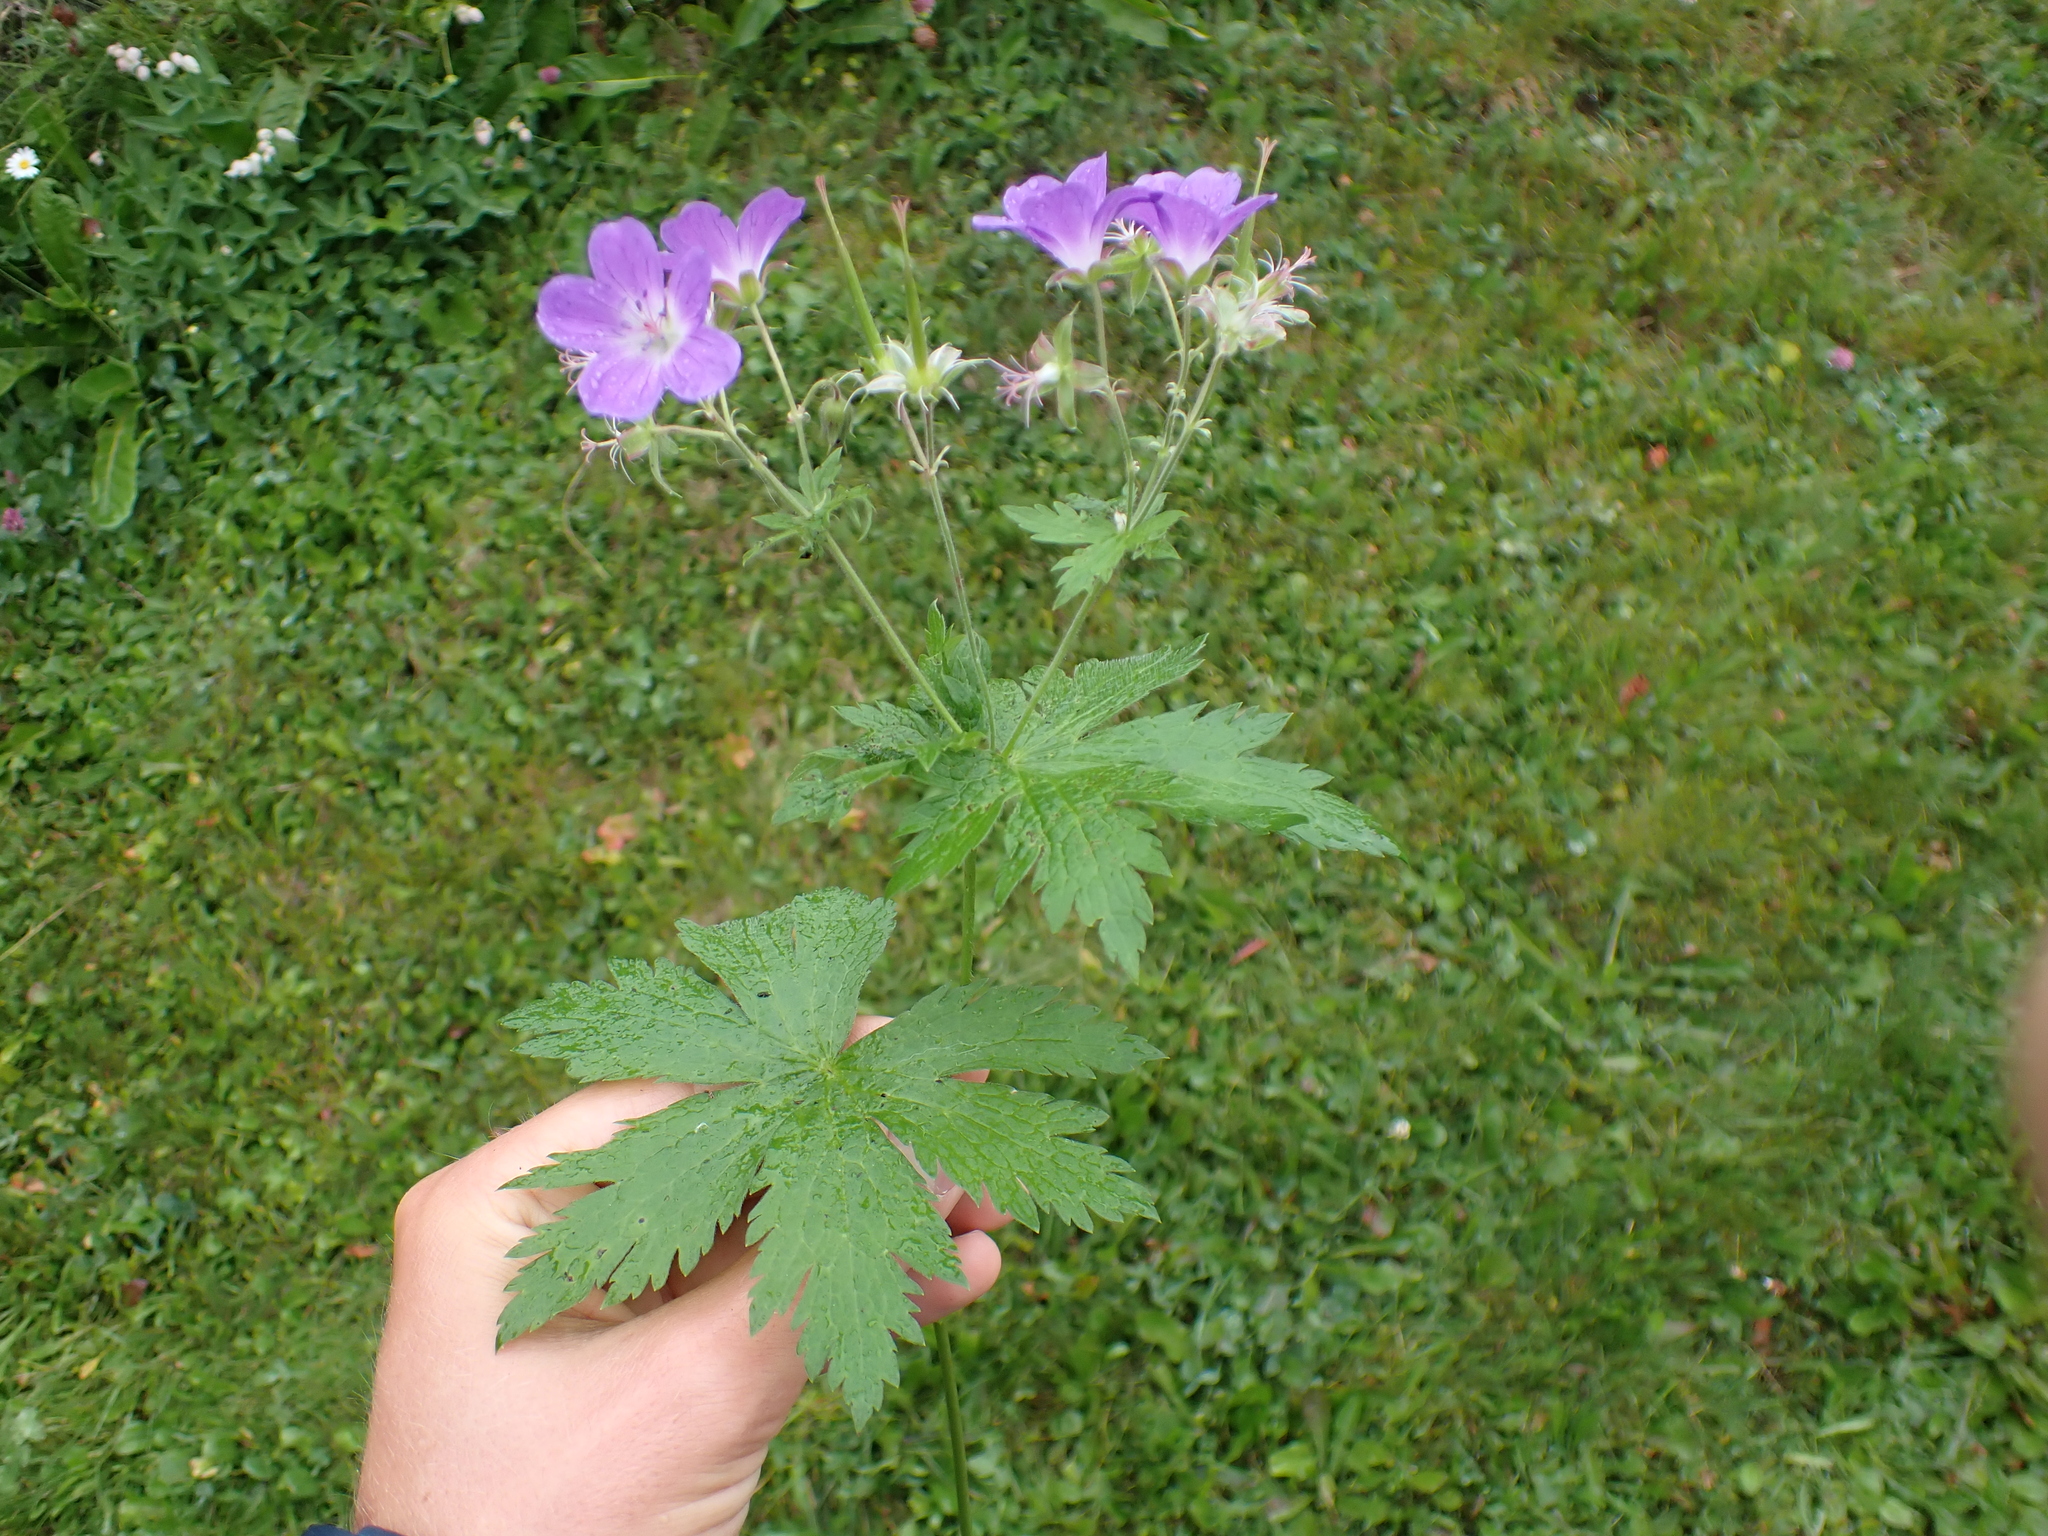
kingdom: Plantae
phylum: Tracheophyta
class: Magnoliopsida
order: Geraniales
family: Geraniaceae
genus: Geranium
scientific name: Geranium sylvaticum
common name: Wood crane's-bill
